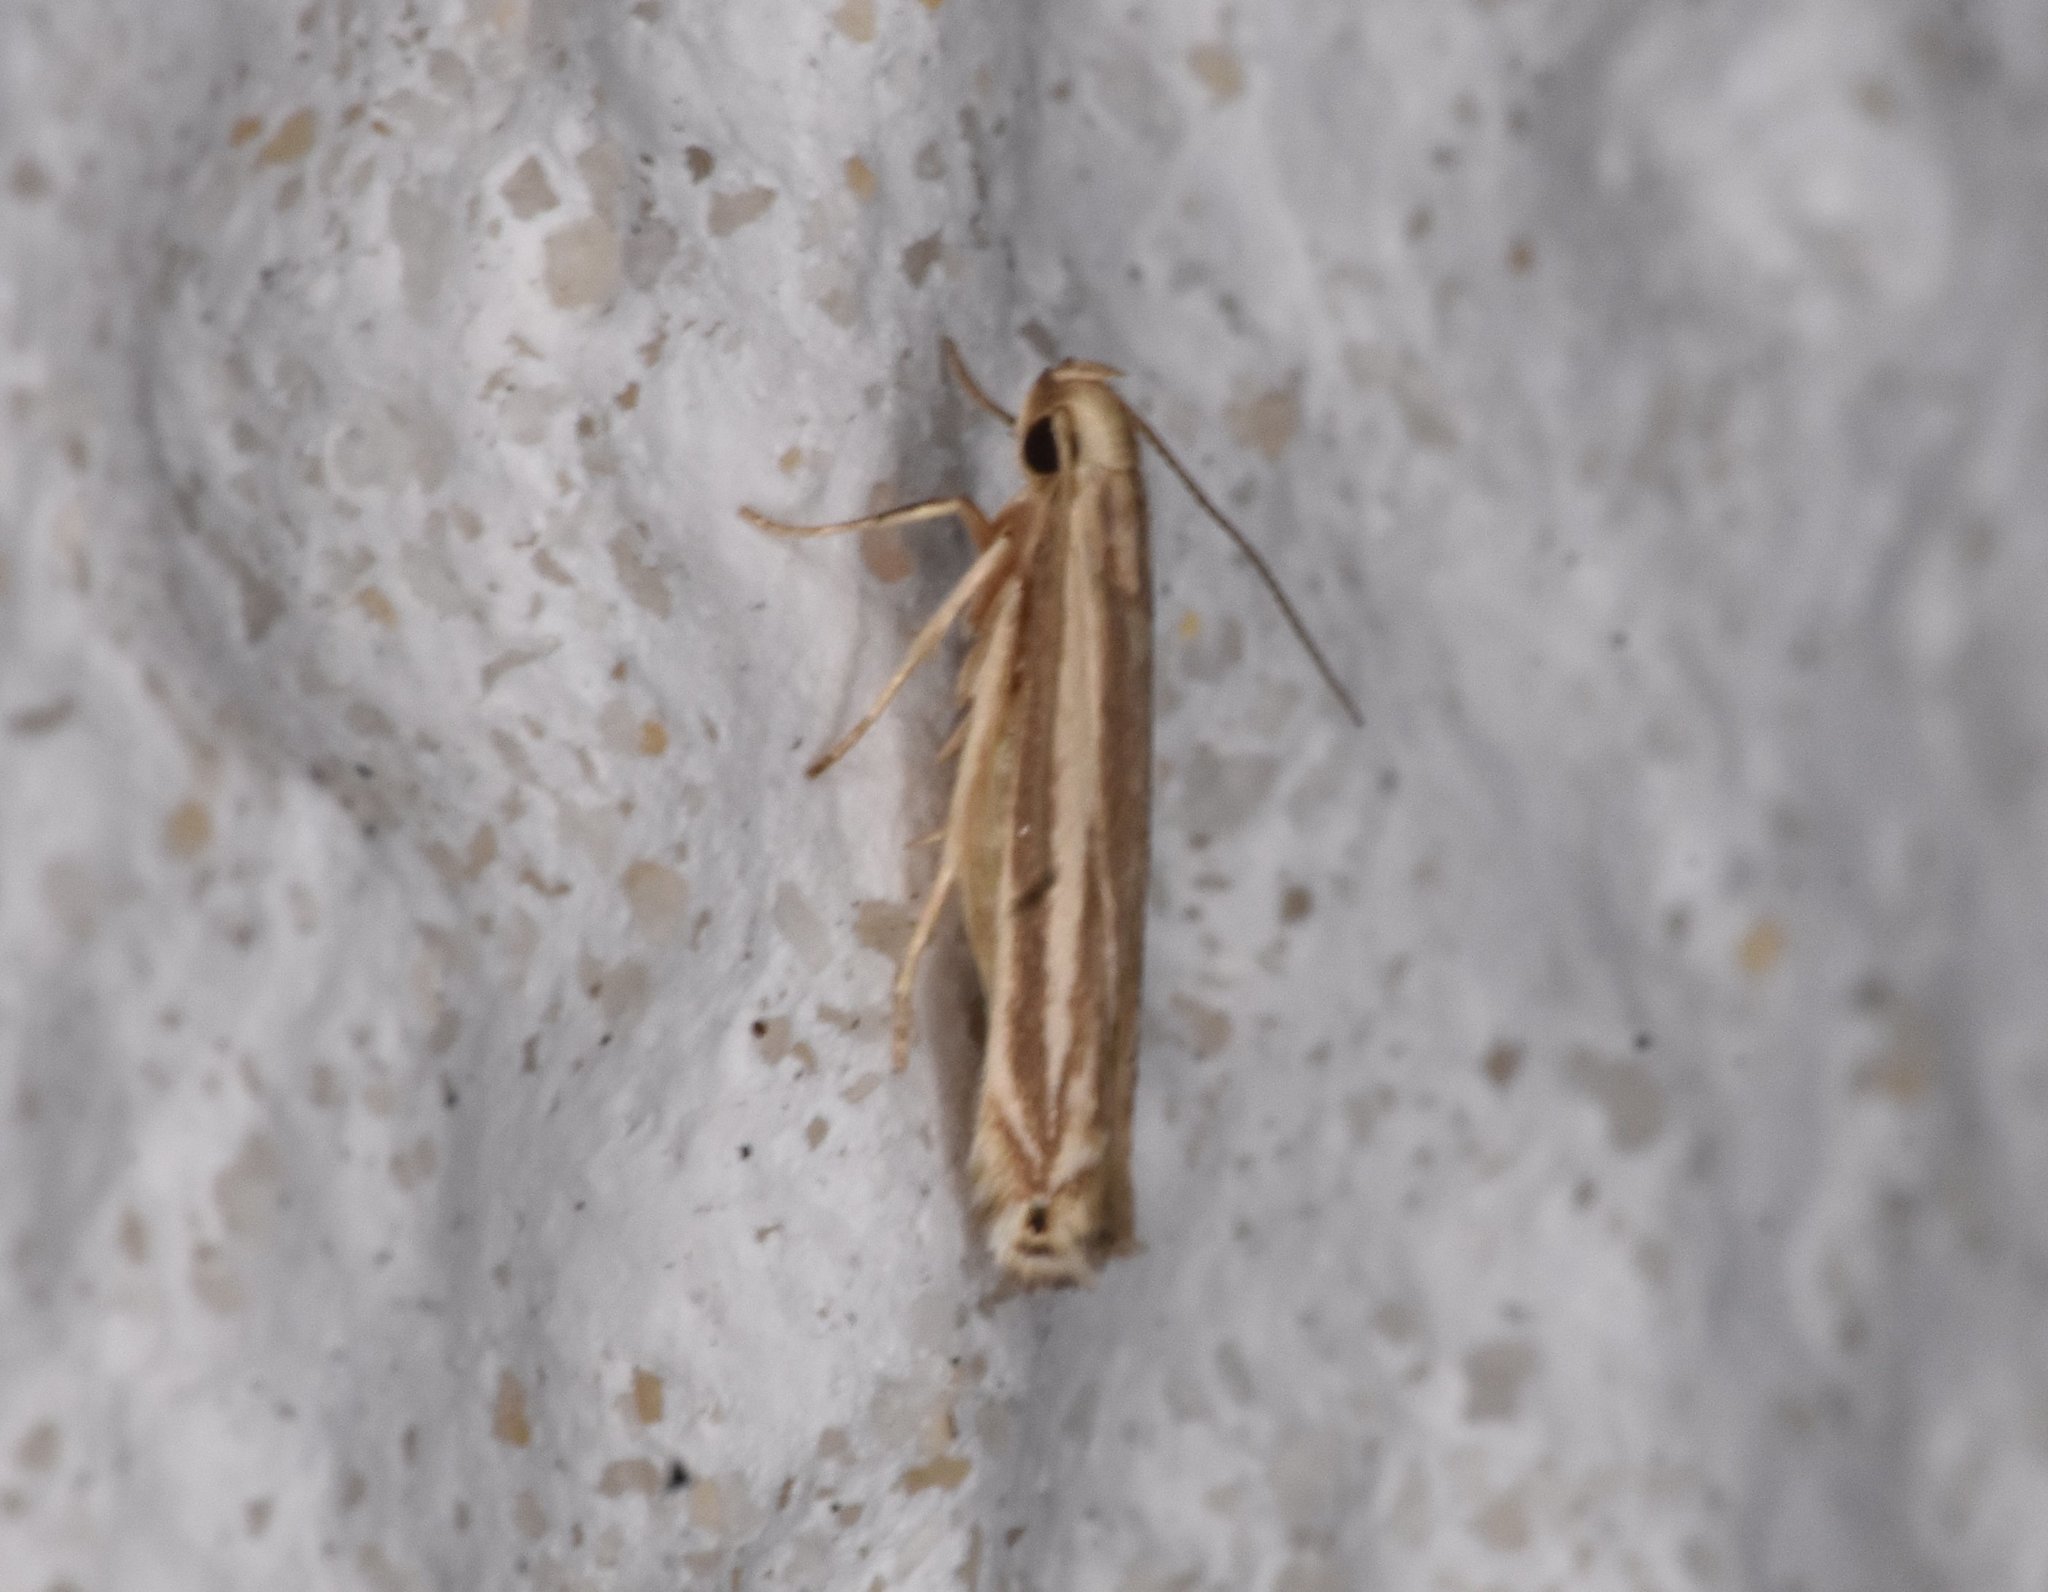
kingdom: Animalia
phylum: Arthropoda
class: Insecta
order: Lepidoptera
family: Gelechiidae
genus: Polyhymno
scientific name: Polyhymno luteostrigella
